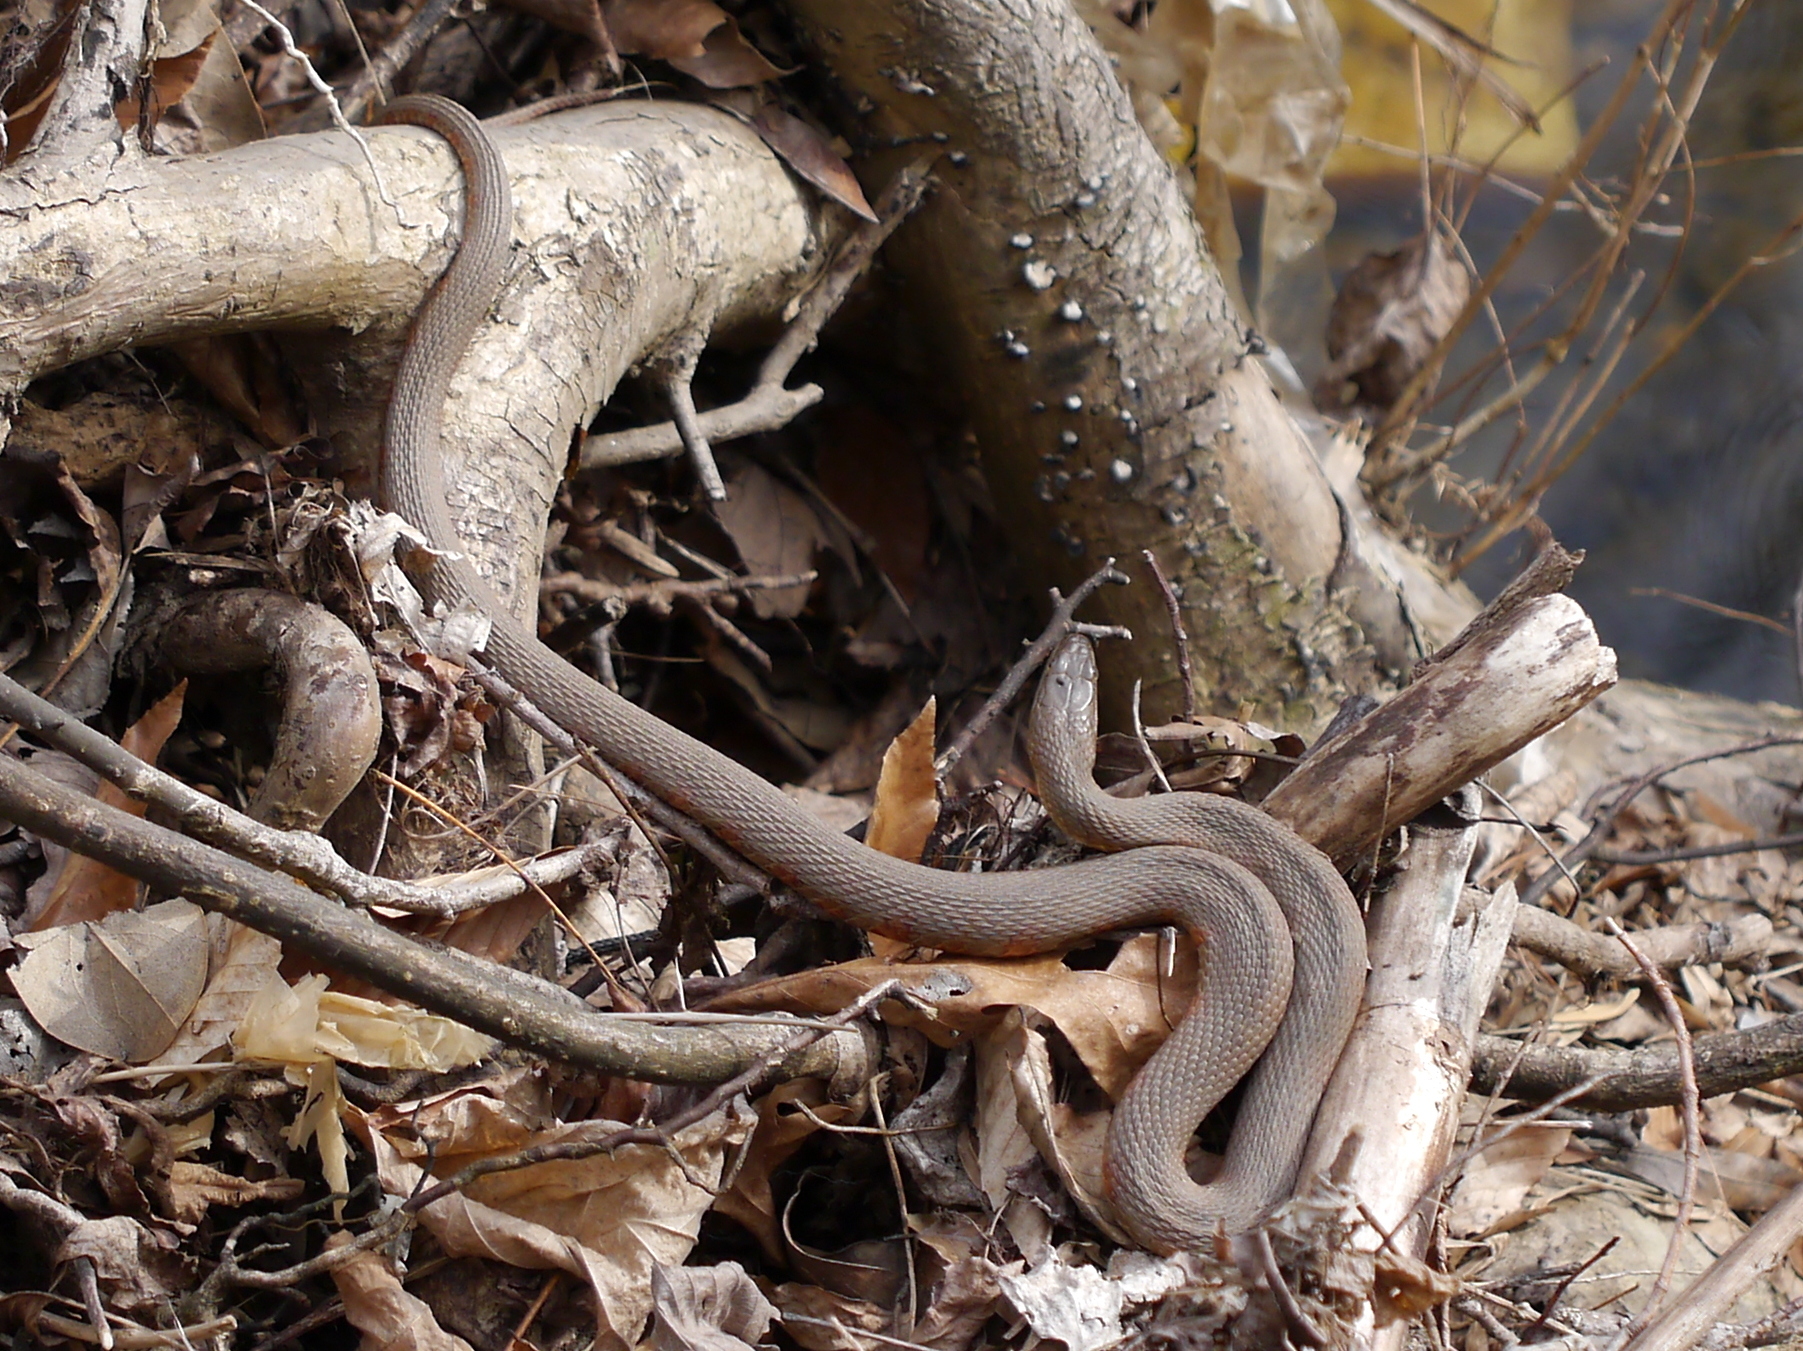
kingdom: Animalia
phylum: Chordata
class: Squamata
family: Colubridae
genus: Nerodia
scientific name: Nerodia sipedon
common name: Northern water snake
